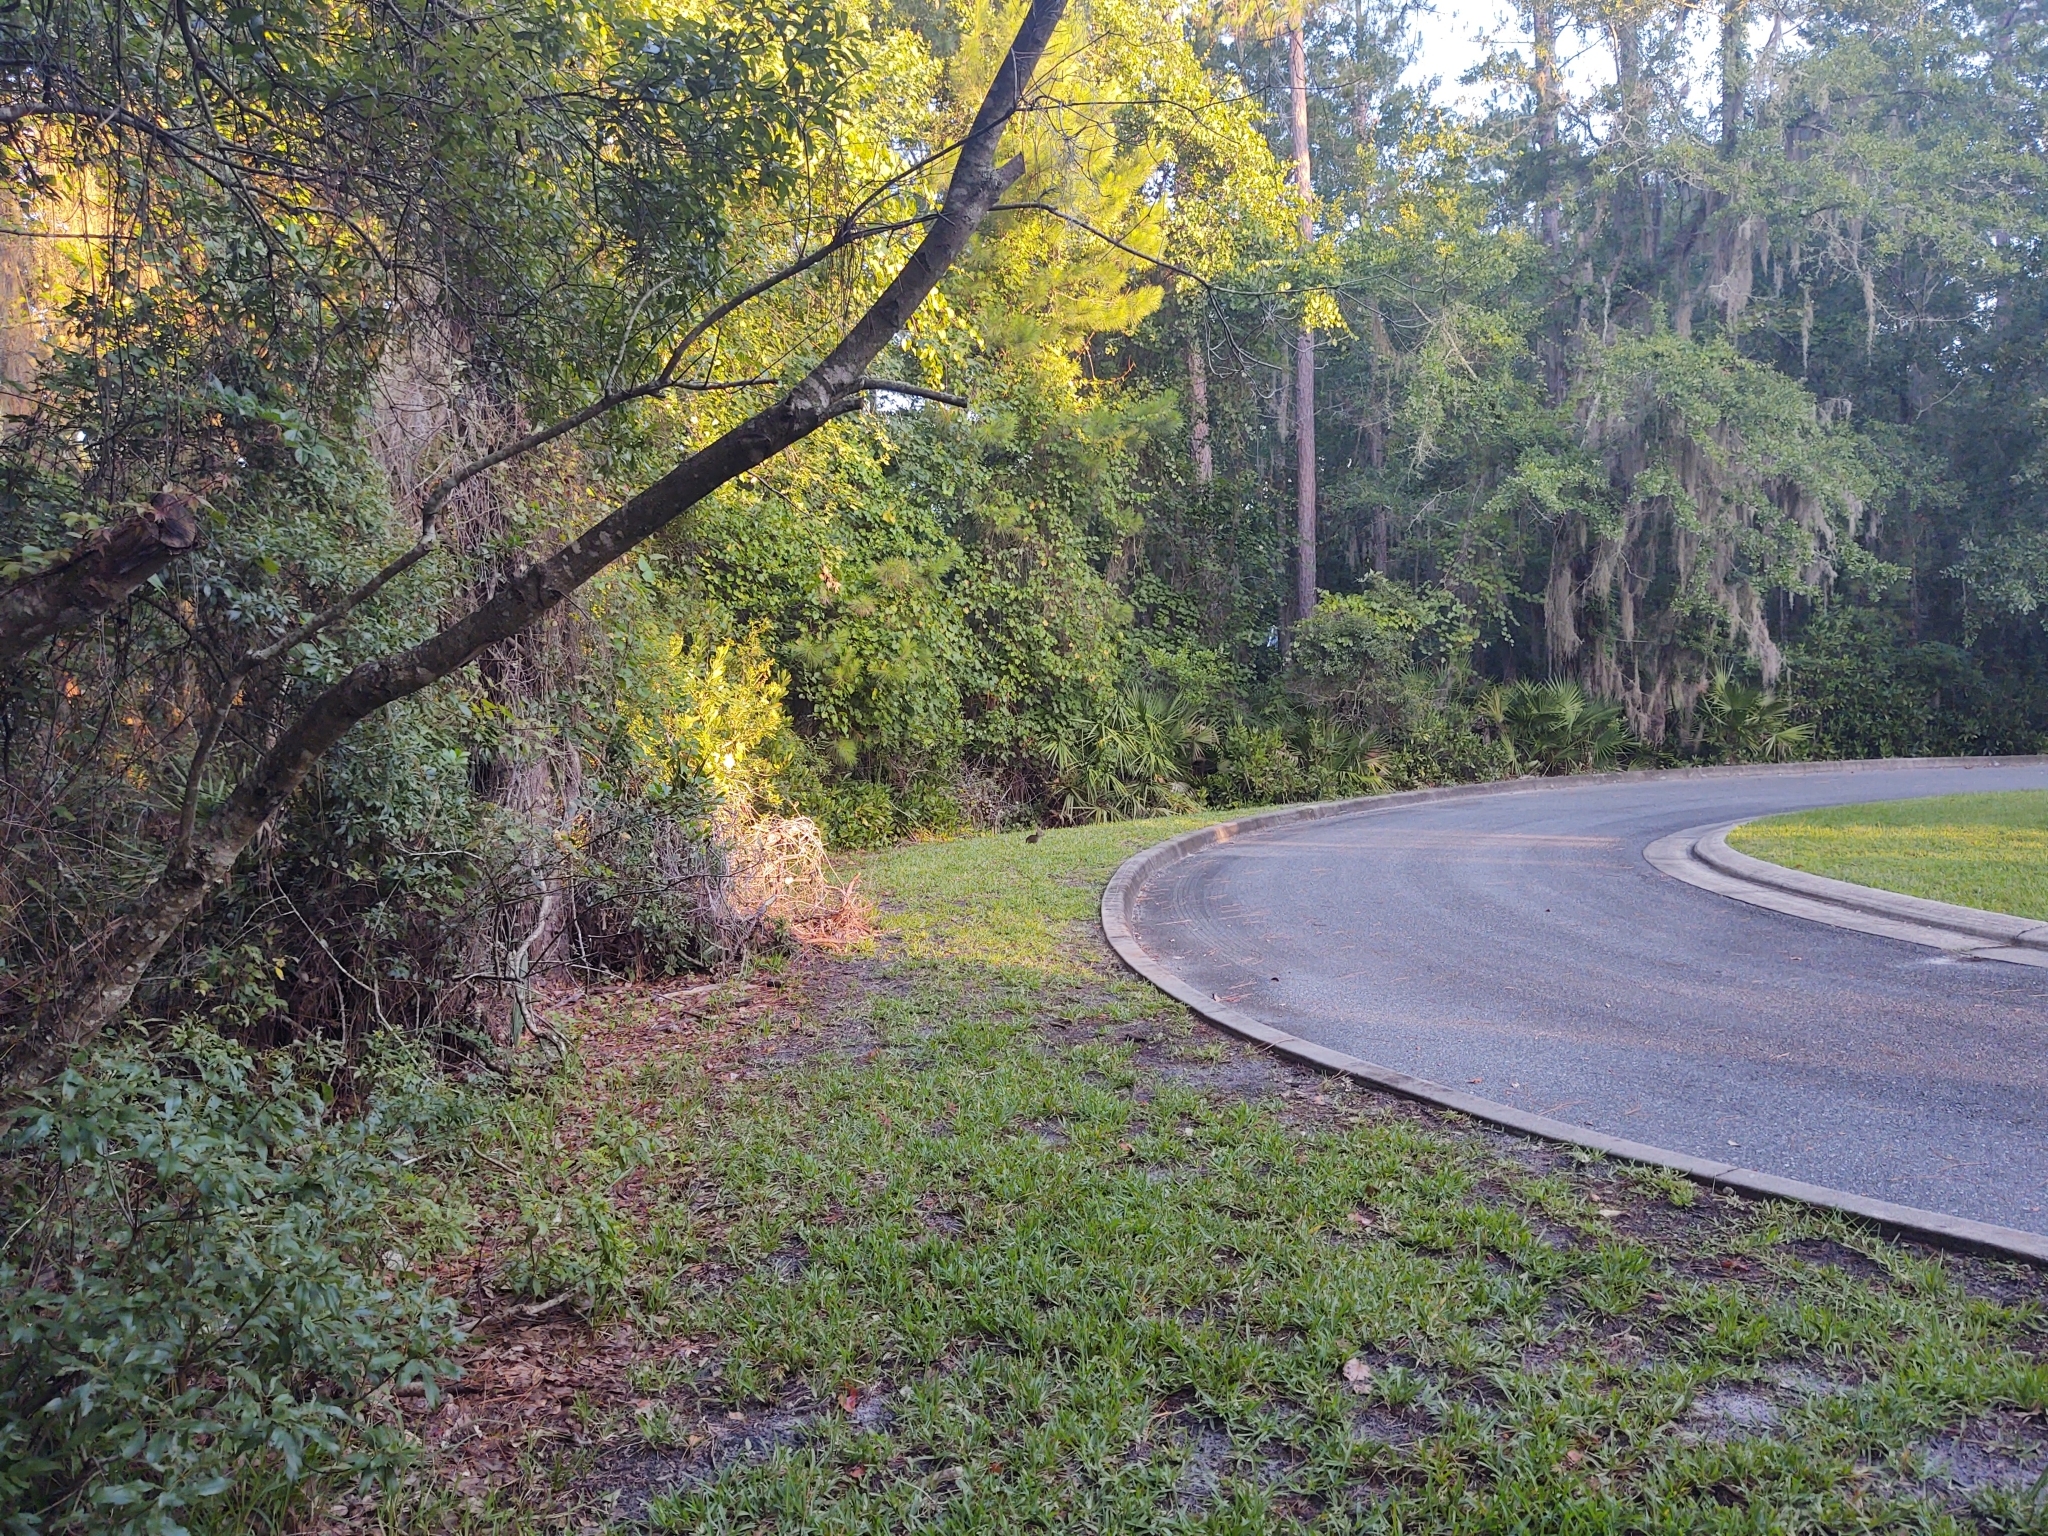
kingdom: Animalia
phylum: Chordata
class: Mammalia
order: Lagomorpha
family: Leporidae
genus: Sylvilagus
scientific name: Sylvilagus palustris
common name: Marsh rabbit
